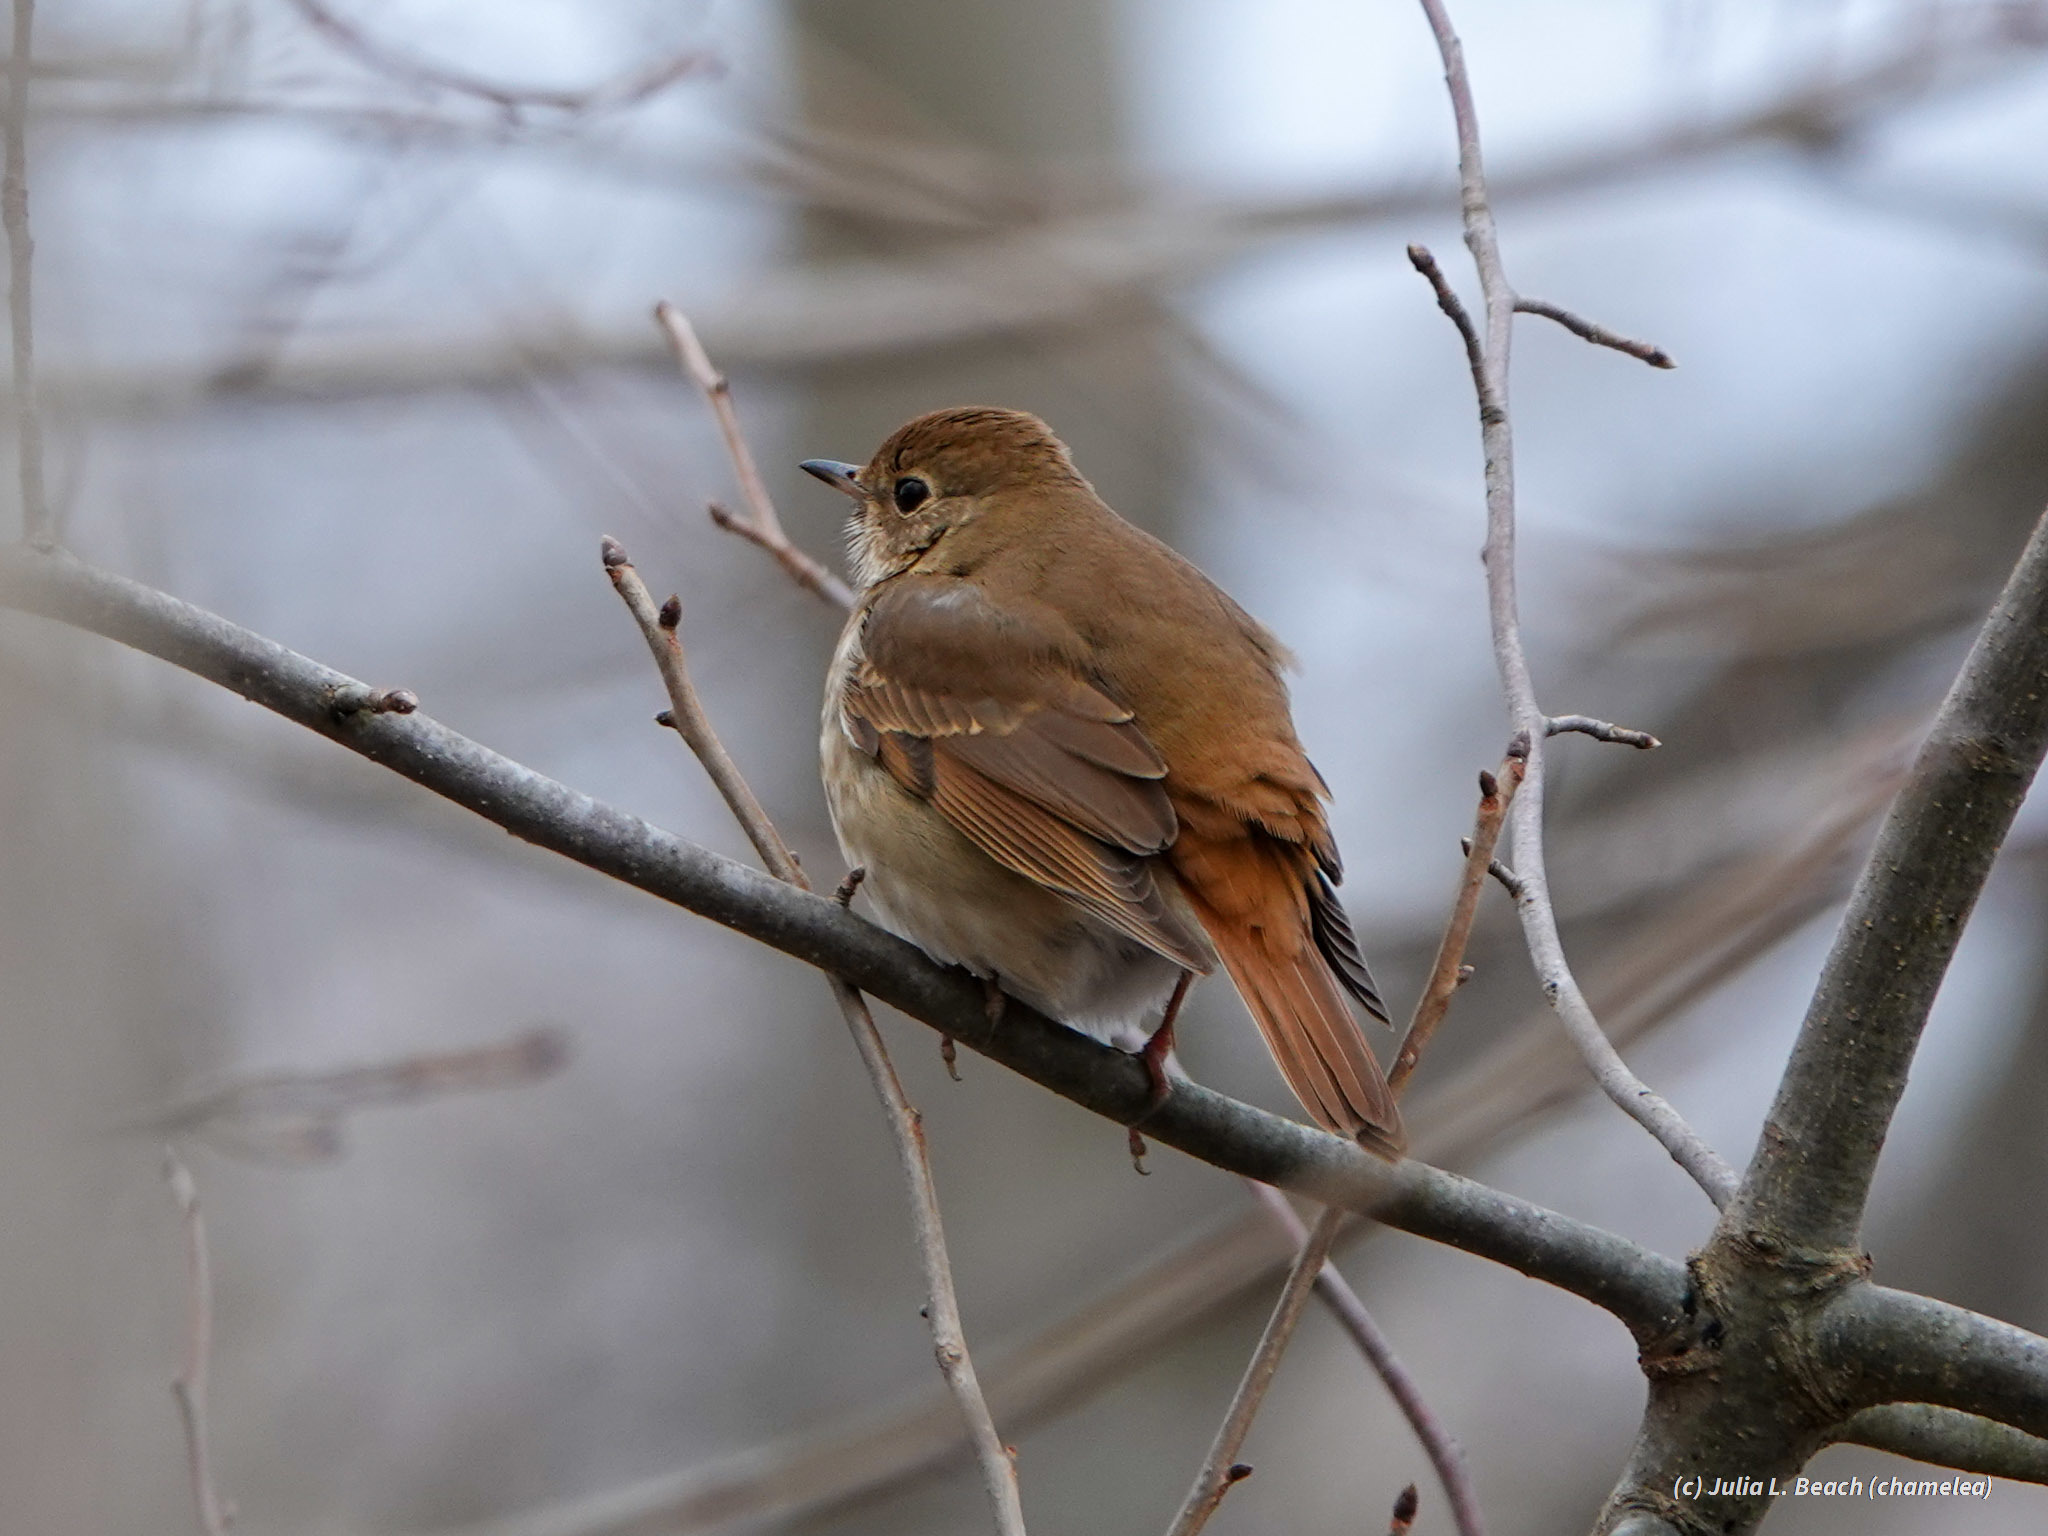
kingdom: Animalia
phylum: Chordata
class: Aves
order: Passeriformes
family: Turdidae
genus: Catharus
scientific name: Catharus guttatus
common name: Hermit thrush
